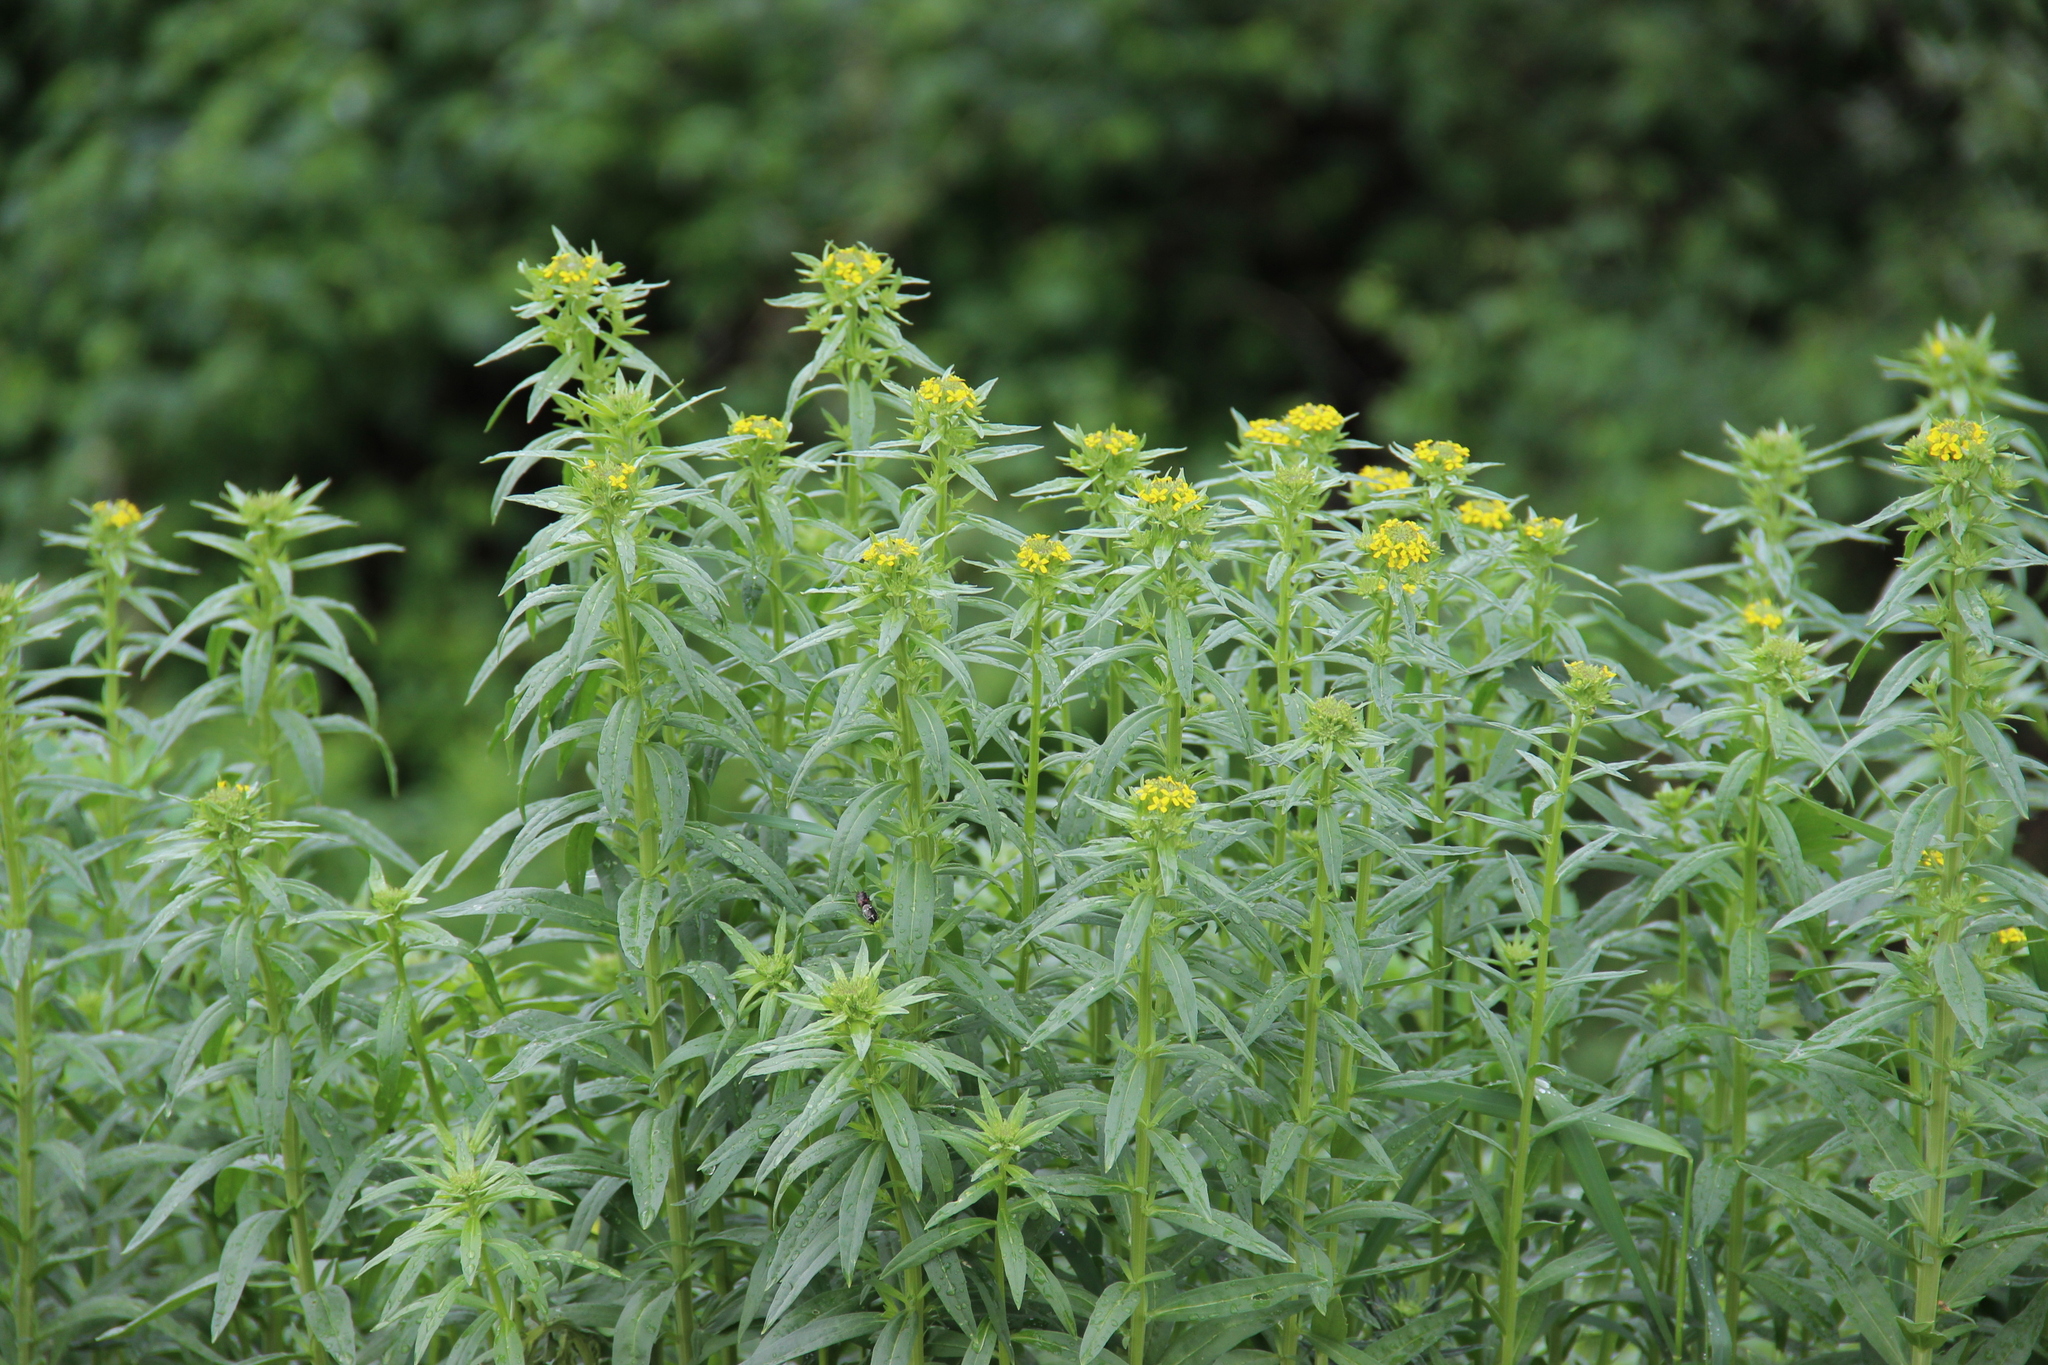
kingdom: Plantae
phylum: Tracheophyta
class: Magnoliopsida
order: Brassicales
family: Brassicaceae
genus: Erysimum
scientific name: Erysimum hieraciifolium
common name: European wallflower
